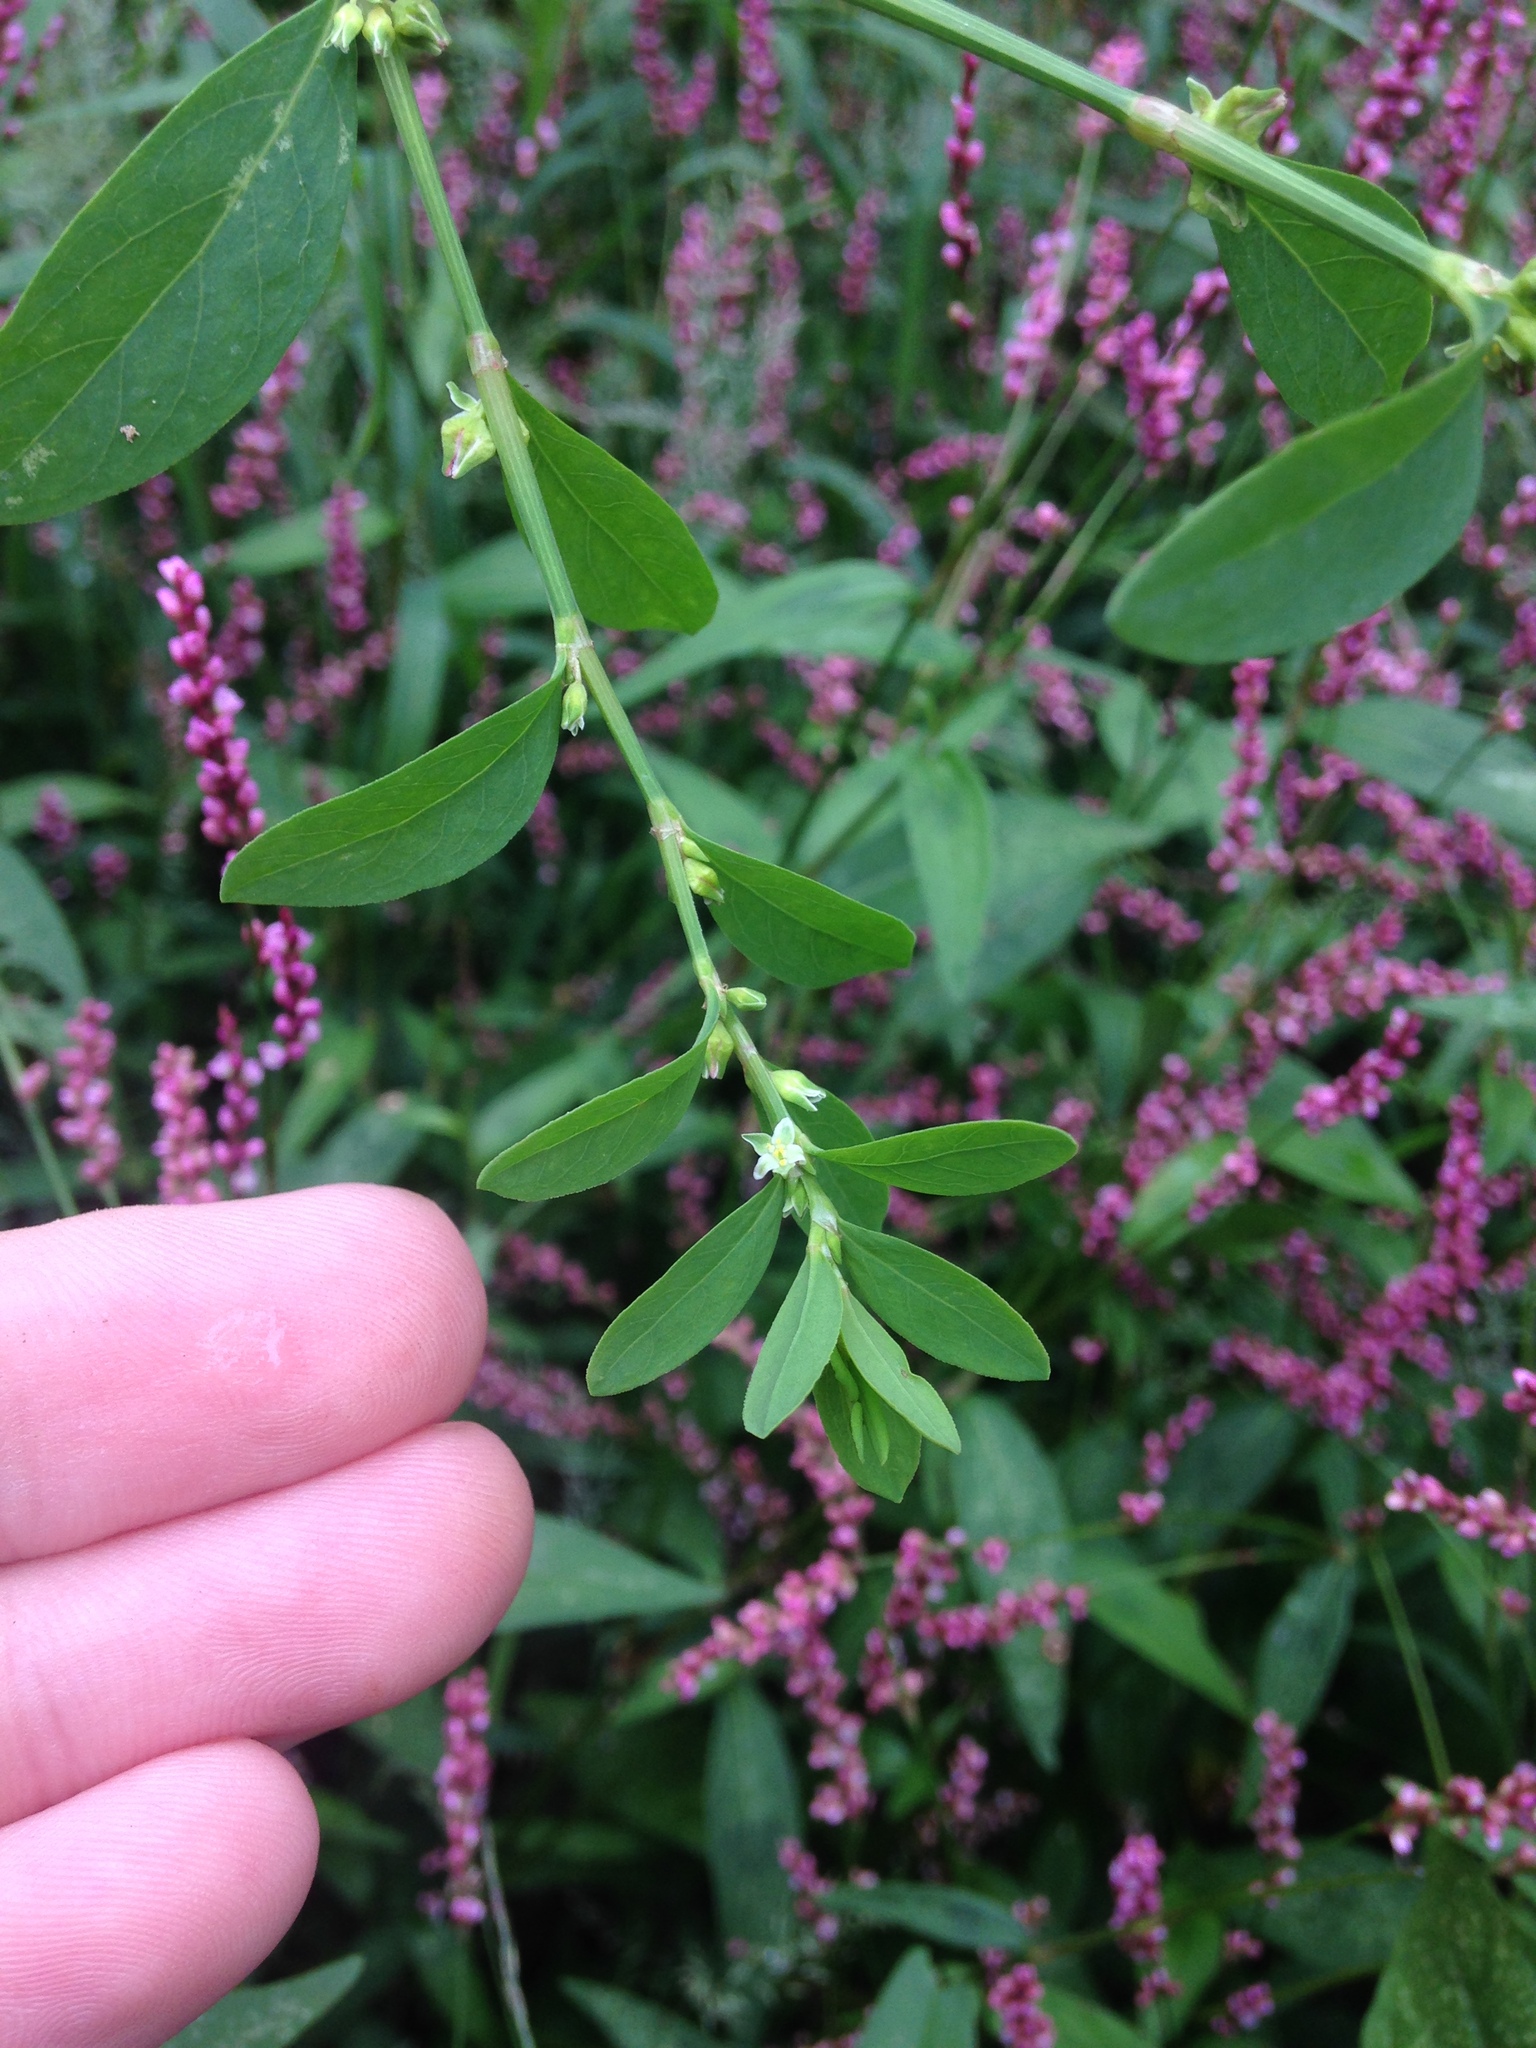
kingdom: Plantae
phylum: Tracheophyta
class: Magnoliopsida
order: Caryophyllales
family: Polygonaceae
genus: Polygonum
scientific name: Polygonum erectum
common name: Erect knotweed
